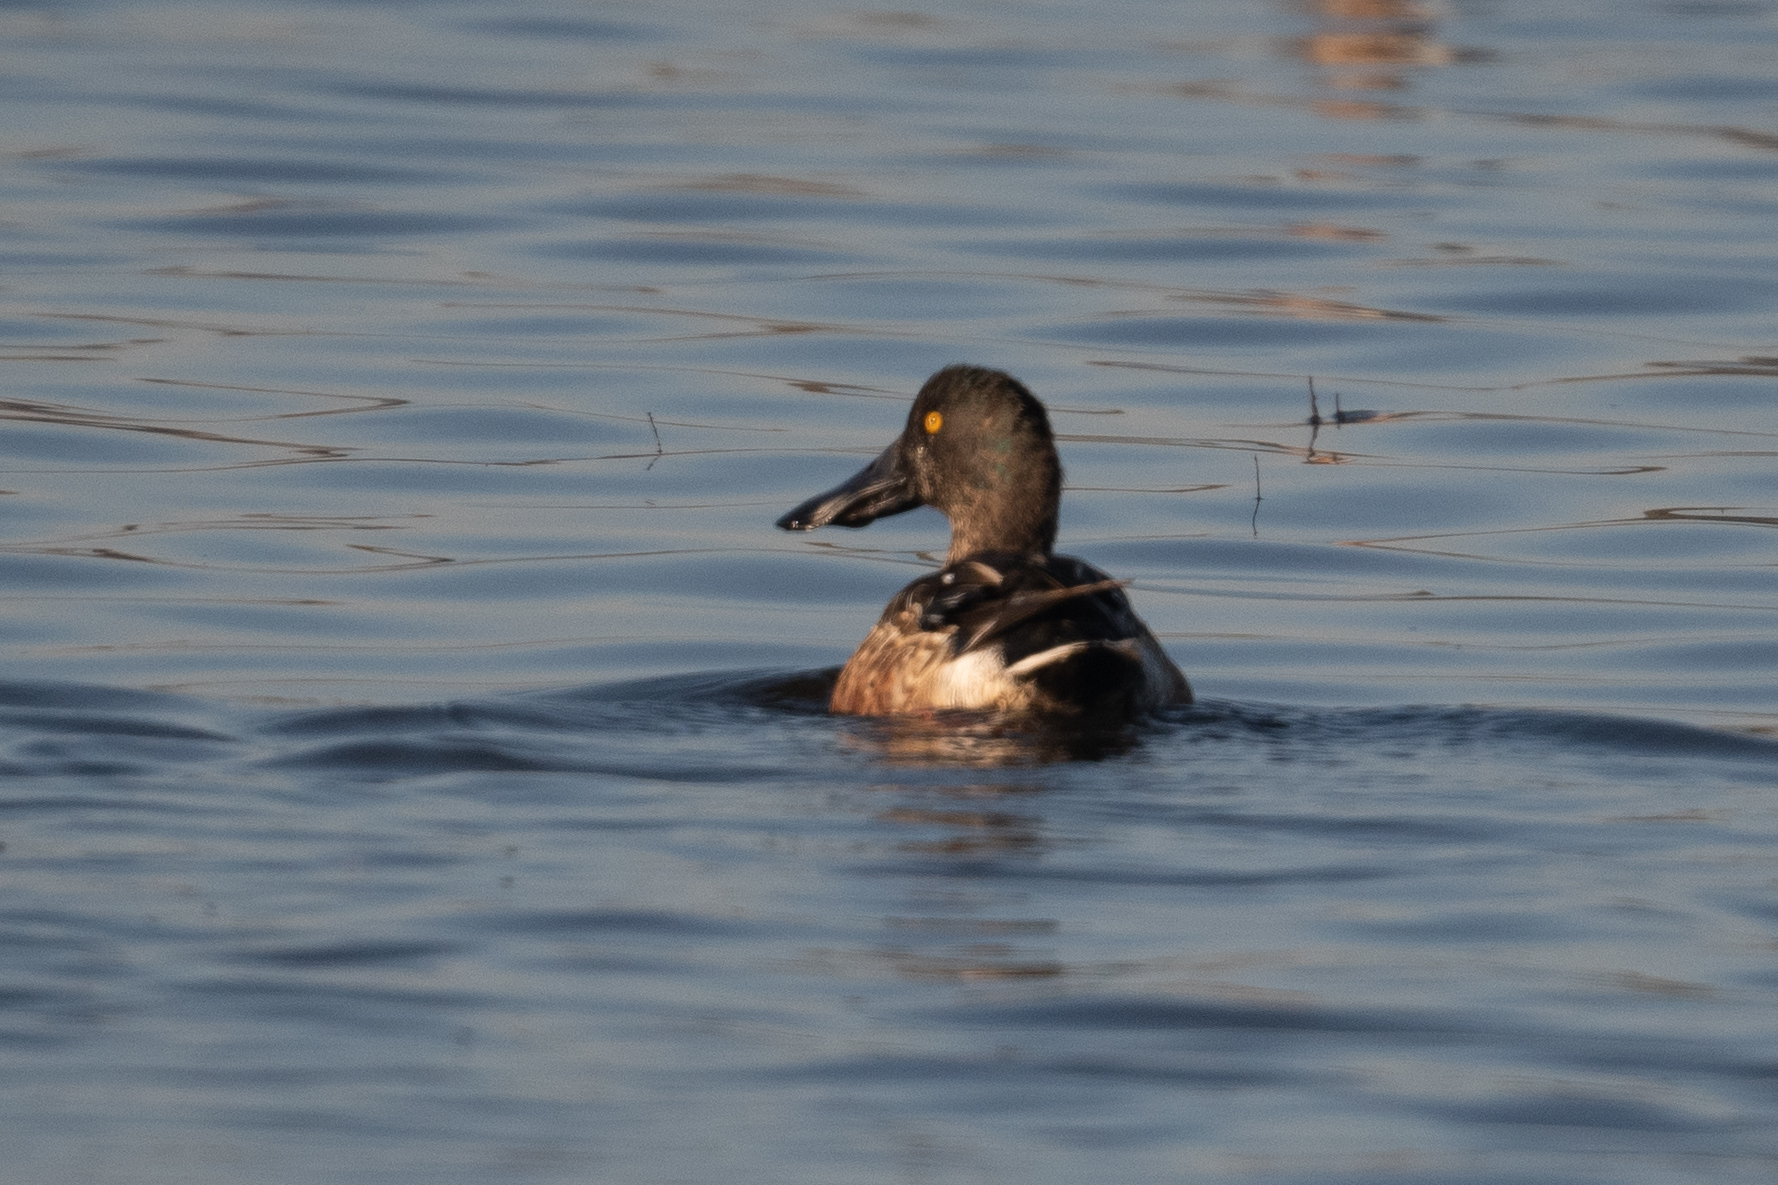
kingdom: Animalia
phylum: Chordata
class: Aves
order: Anseriformes
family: Anatidae
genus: Spatula
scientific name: Spatula clypeata
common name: Northern shoveler
